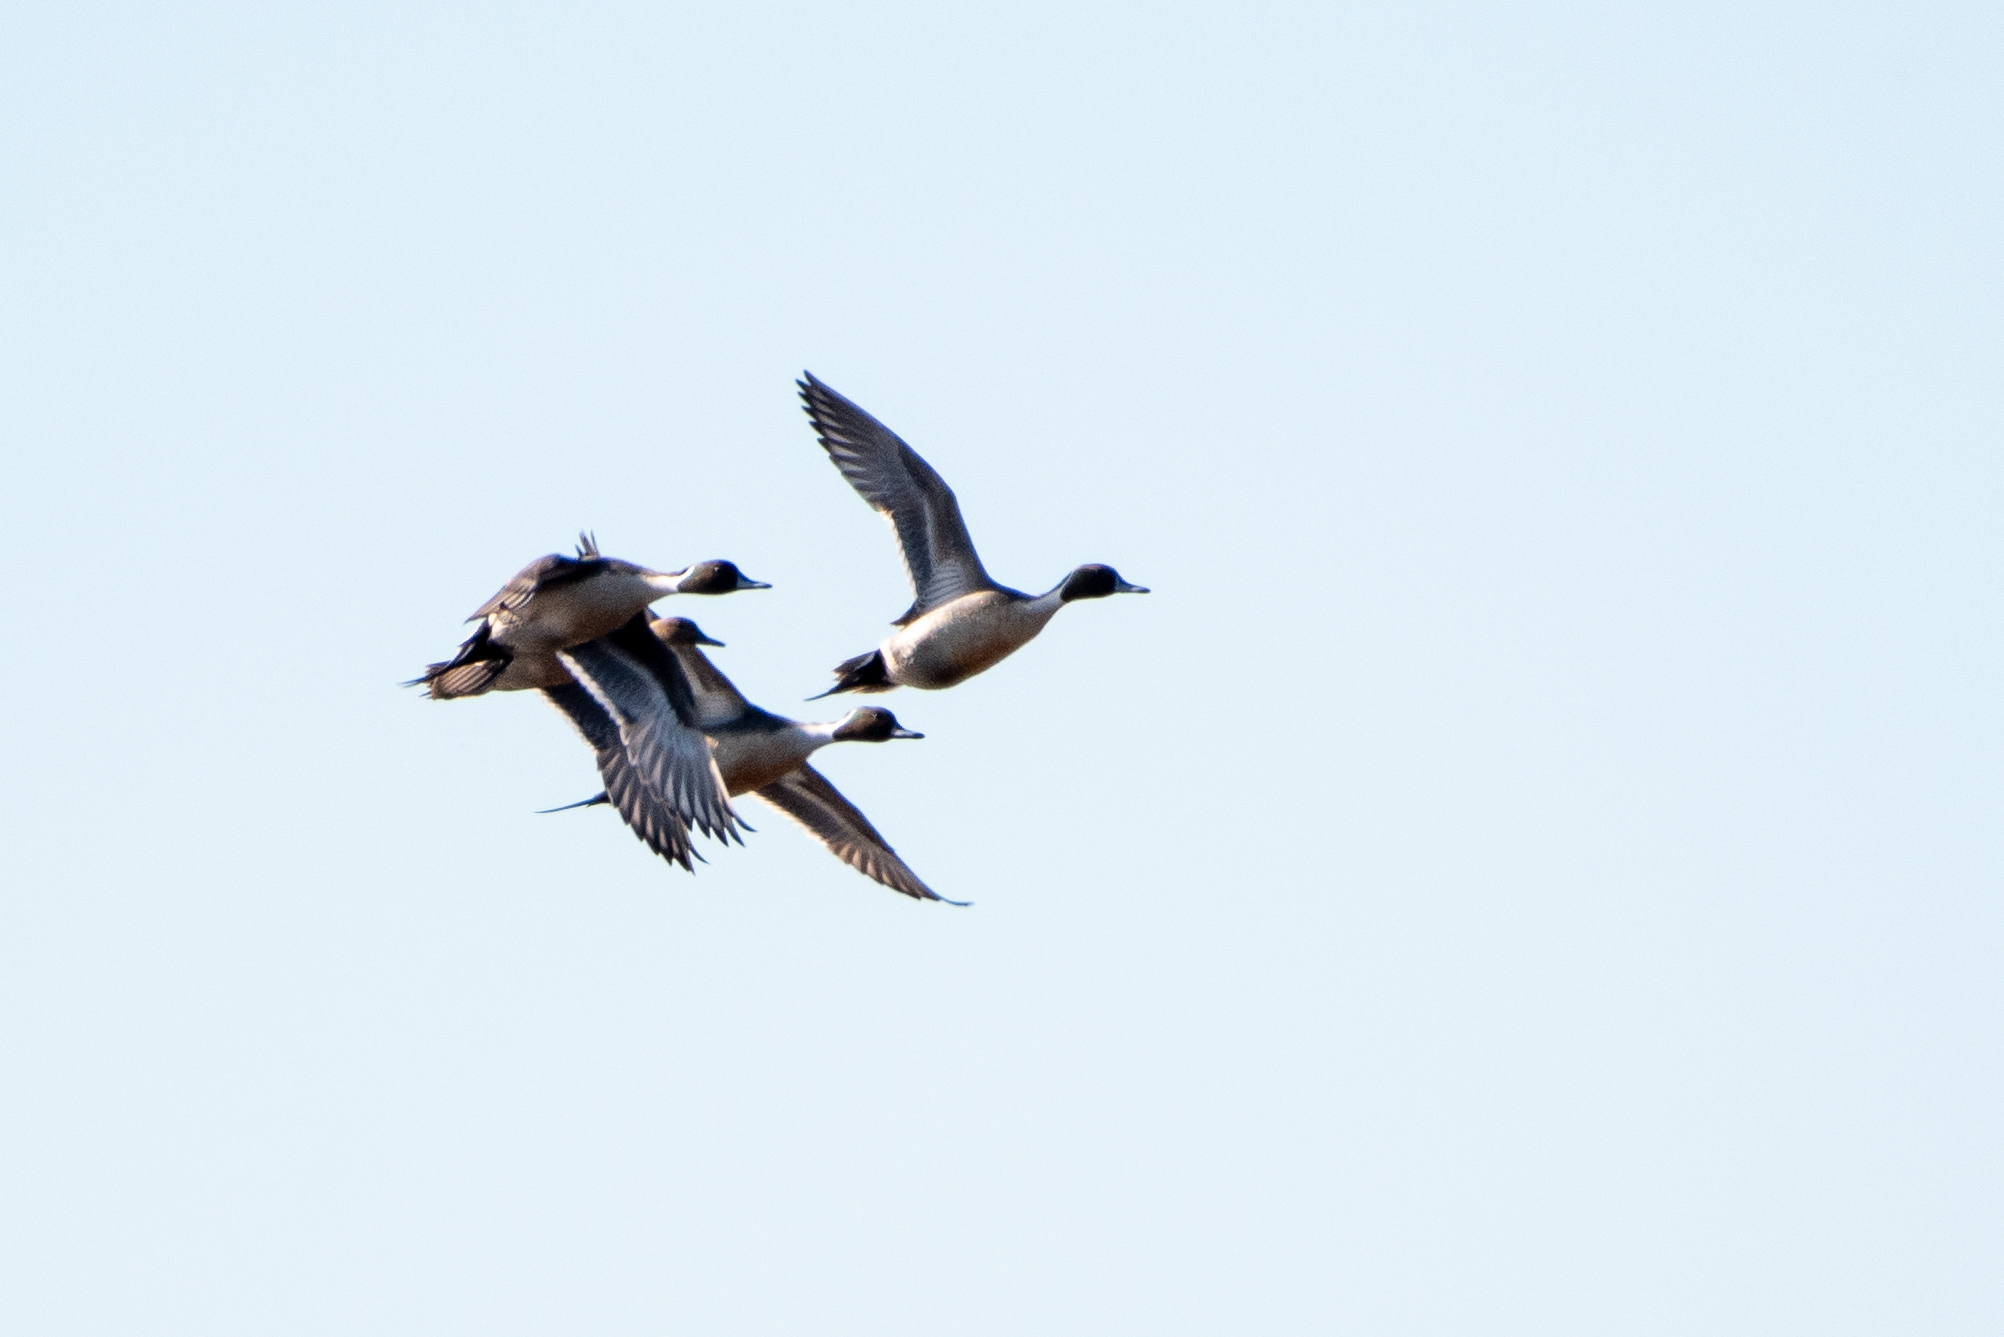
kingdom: Animalia
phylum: Chordata
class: Aves
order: Anseriformes
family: Anatidae
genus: Anas
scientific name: Anas acuta
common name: Northern pintail
